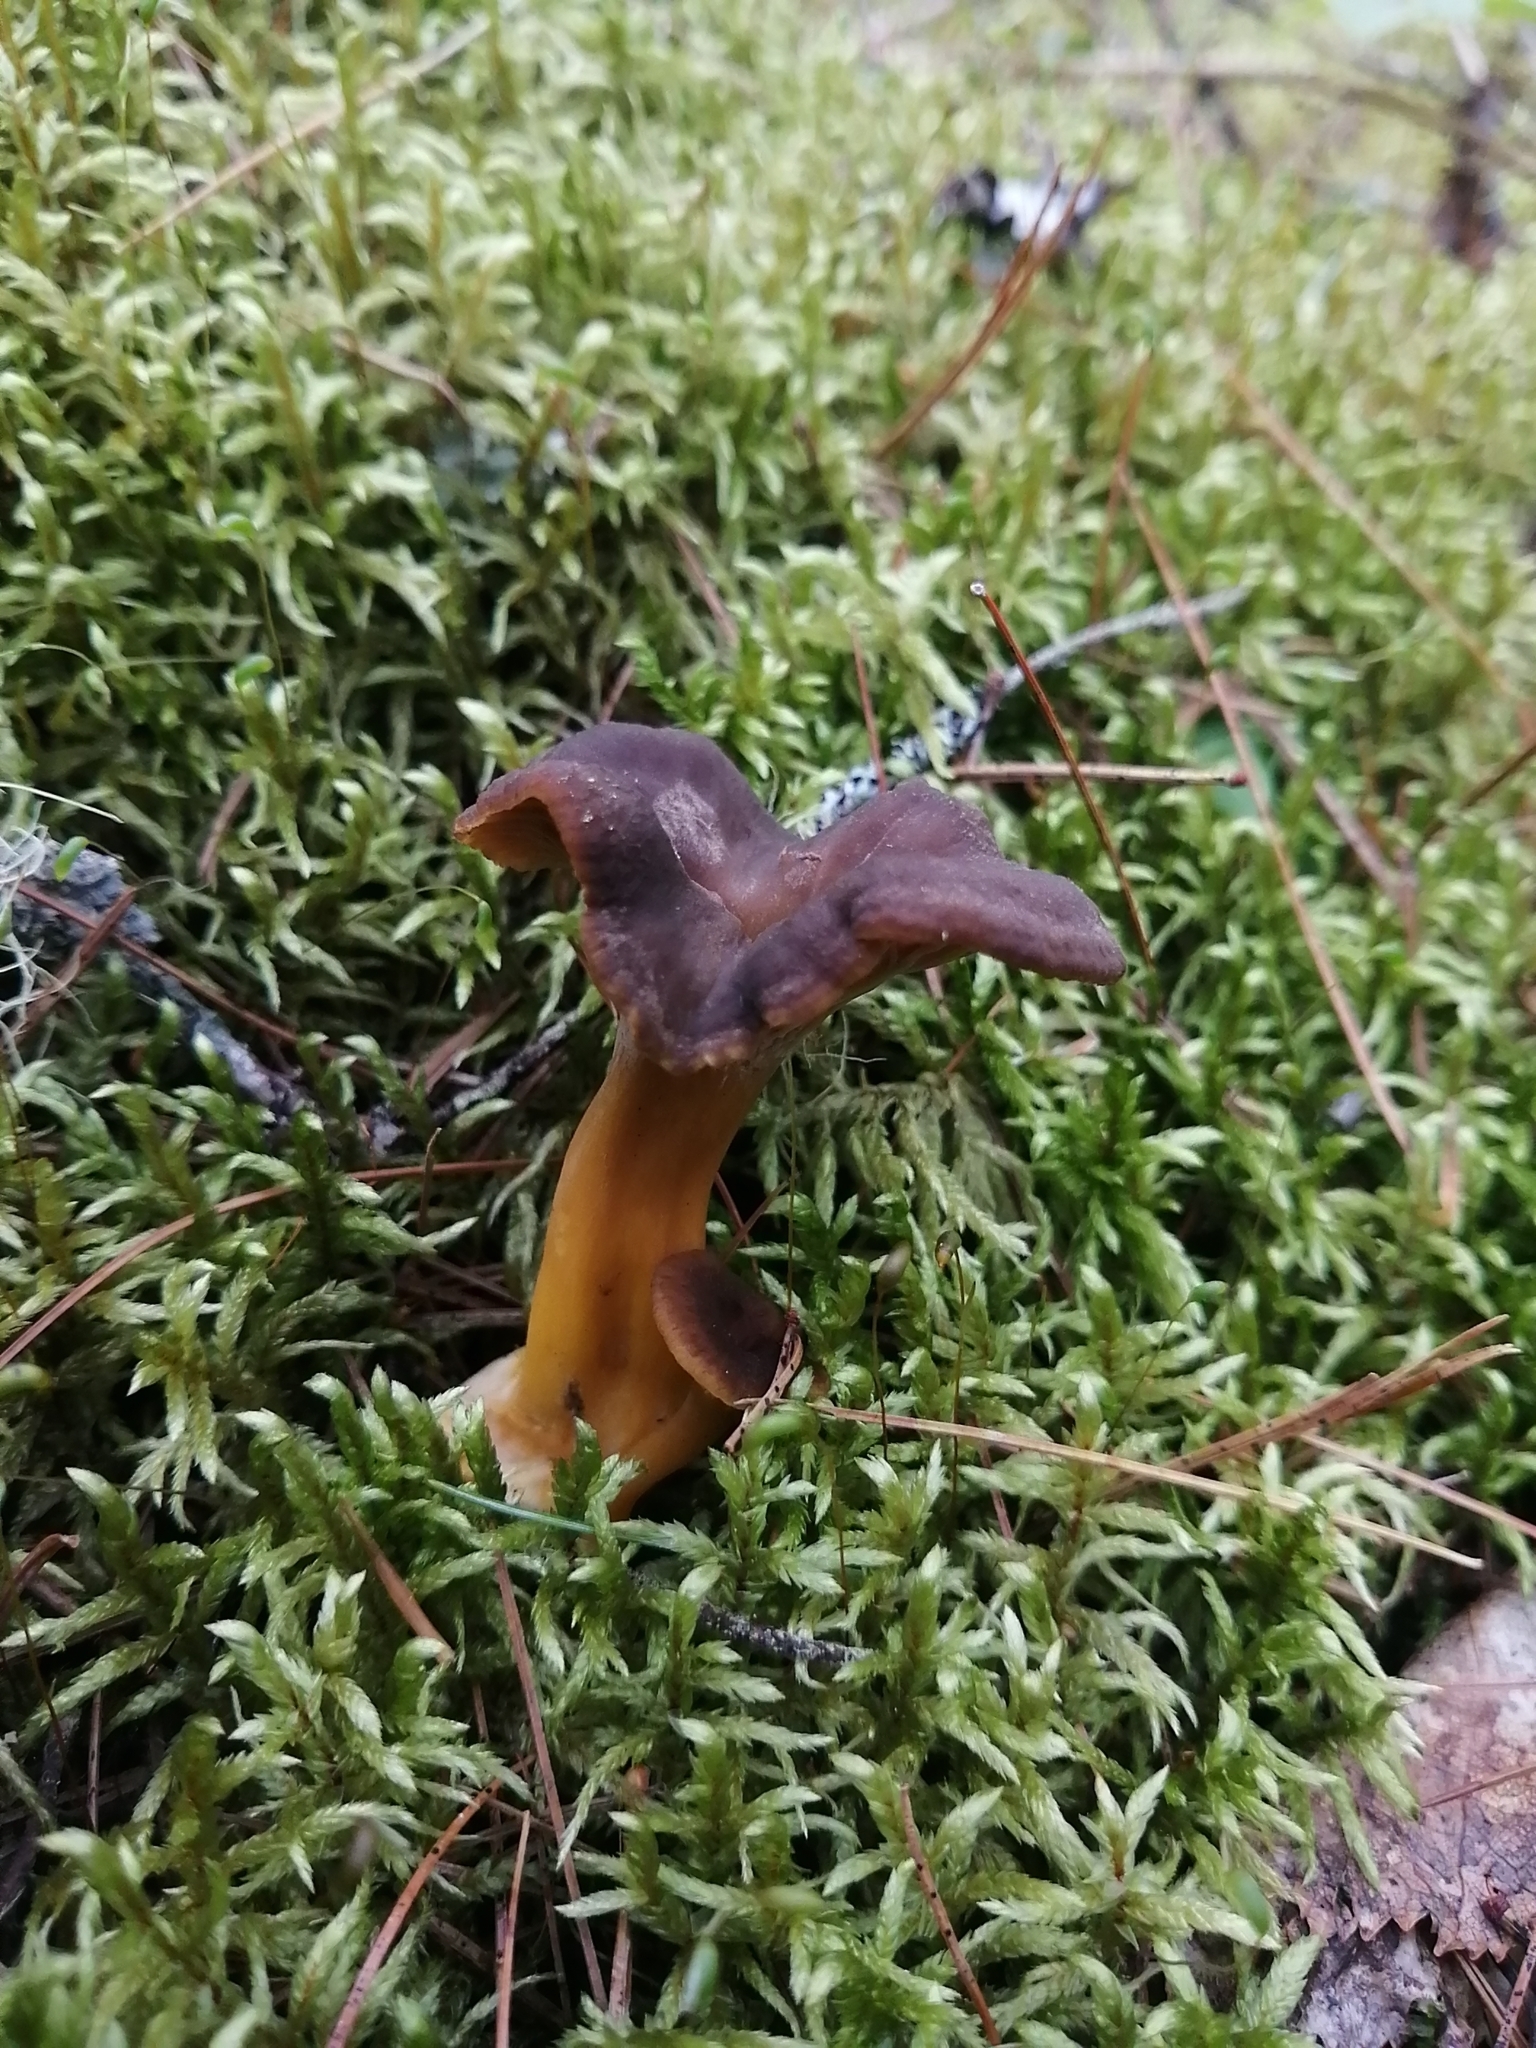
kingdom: Fungi
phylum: Basidiomycota
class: Agaricomycetes
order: Cantharellales
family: Hydnaceae
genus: Craterellus
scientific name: Craterellus tubaeformis
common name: Yellowfoot
